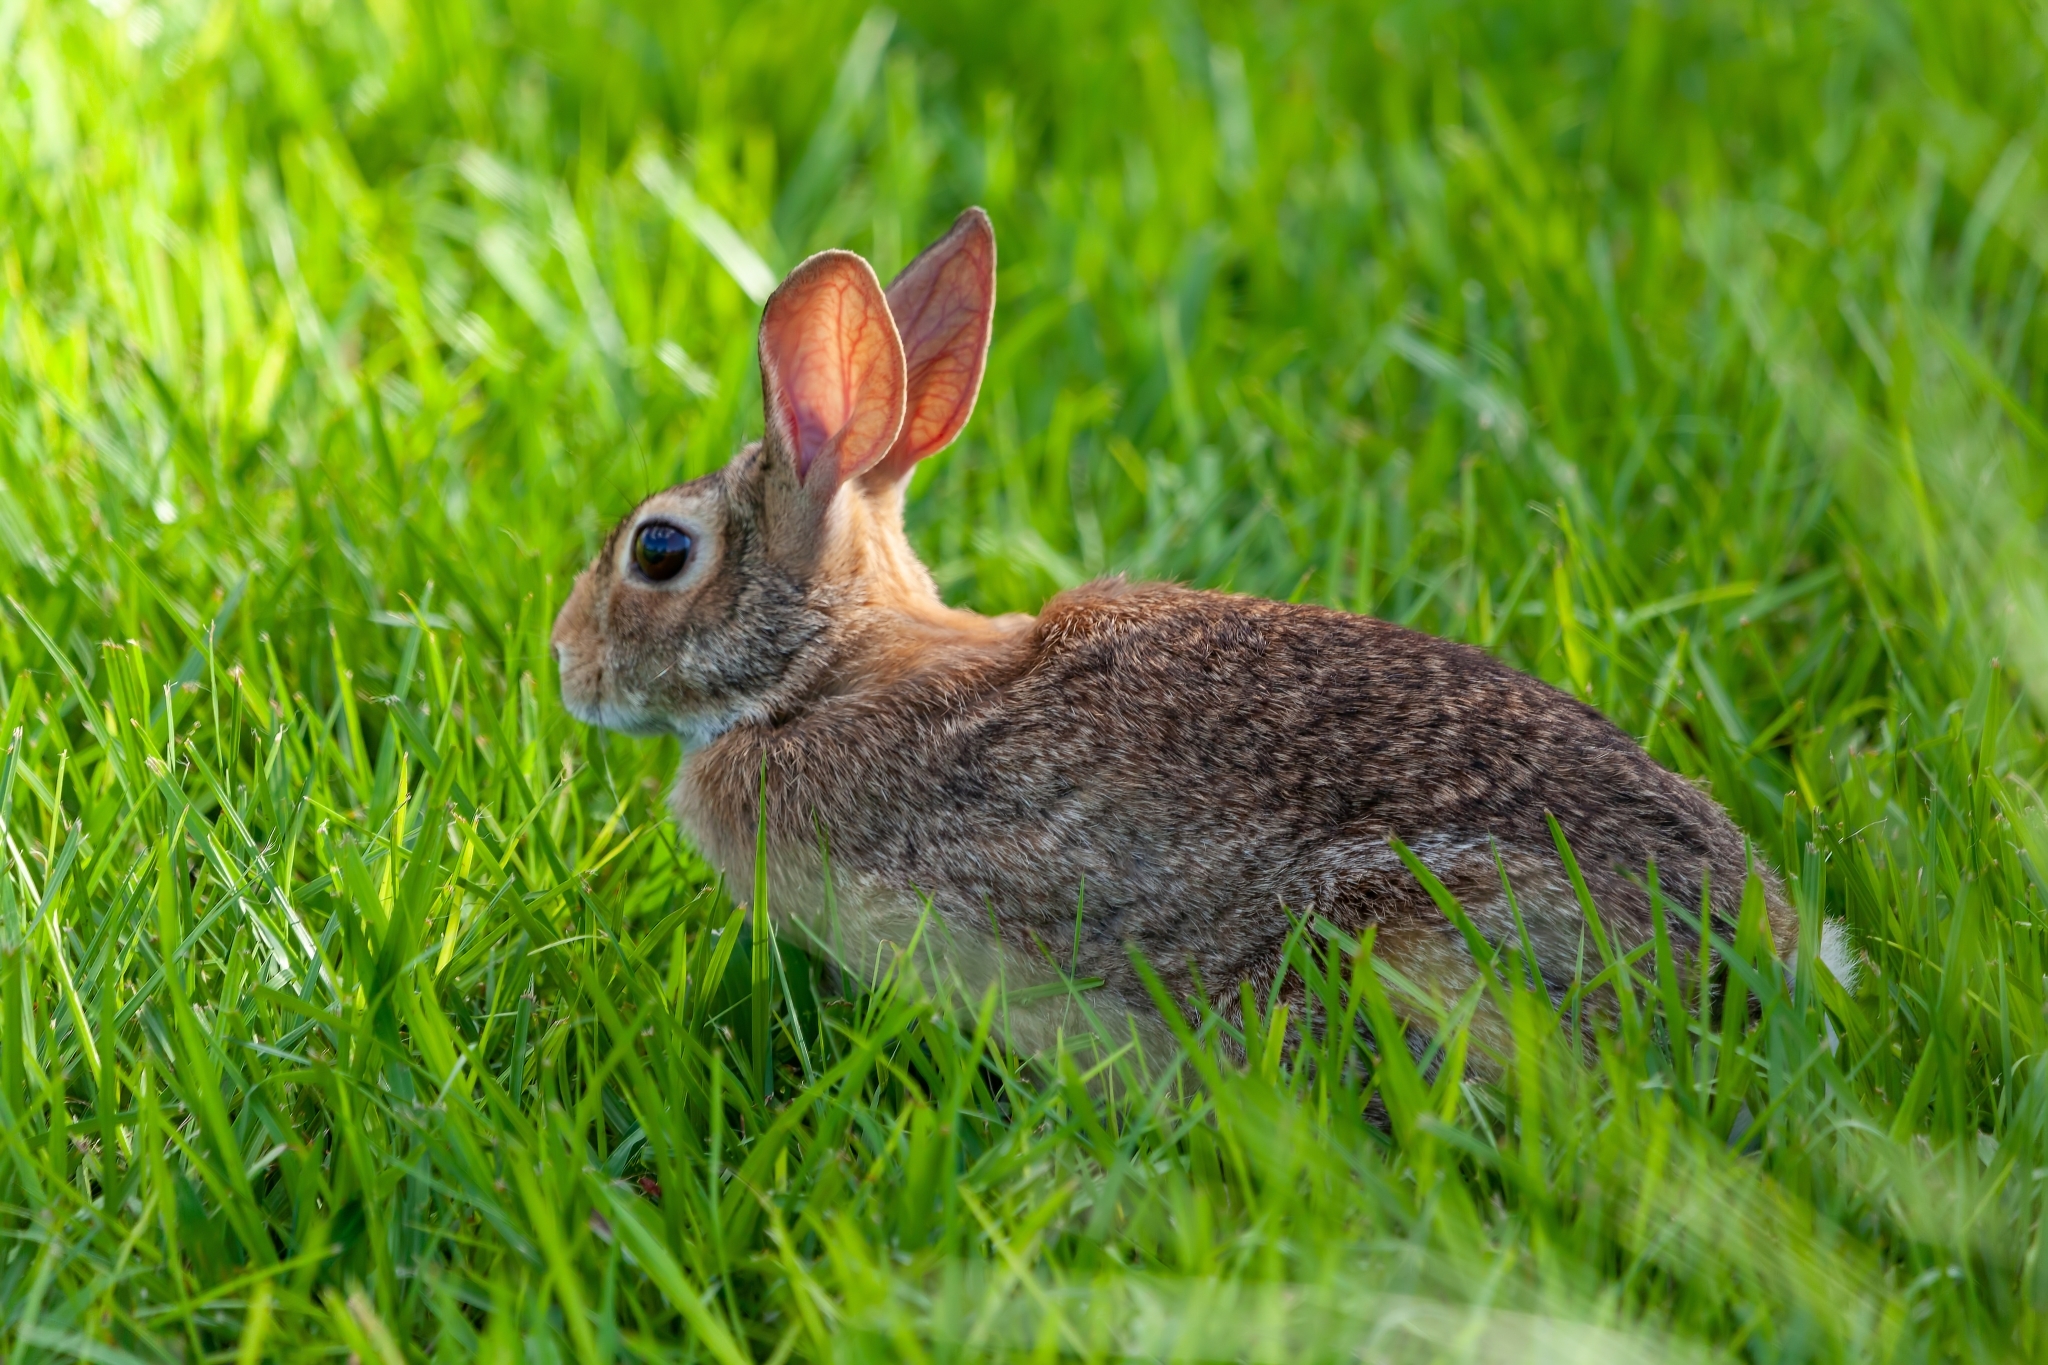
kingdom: Animalia
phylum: Chordata
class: Mammalia
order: Lagomorpha
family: Leporidae
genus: Sylvilagus
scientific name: Sylvilagus floridanus
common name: Eastern cottontail
